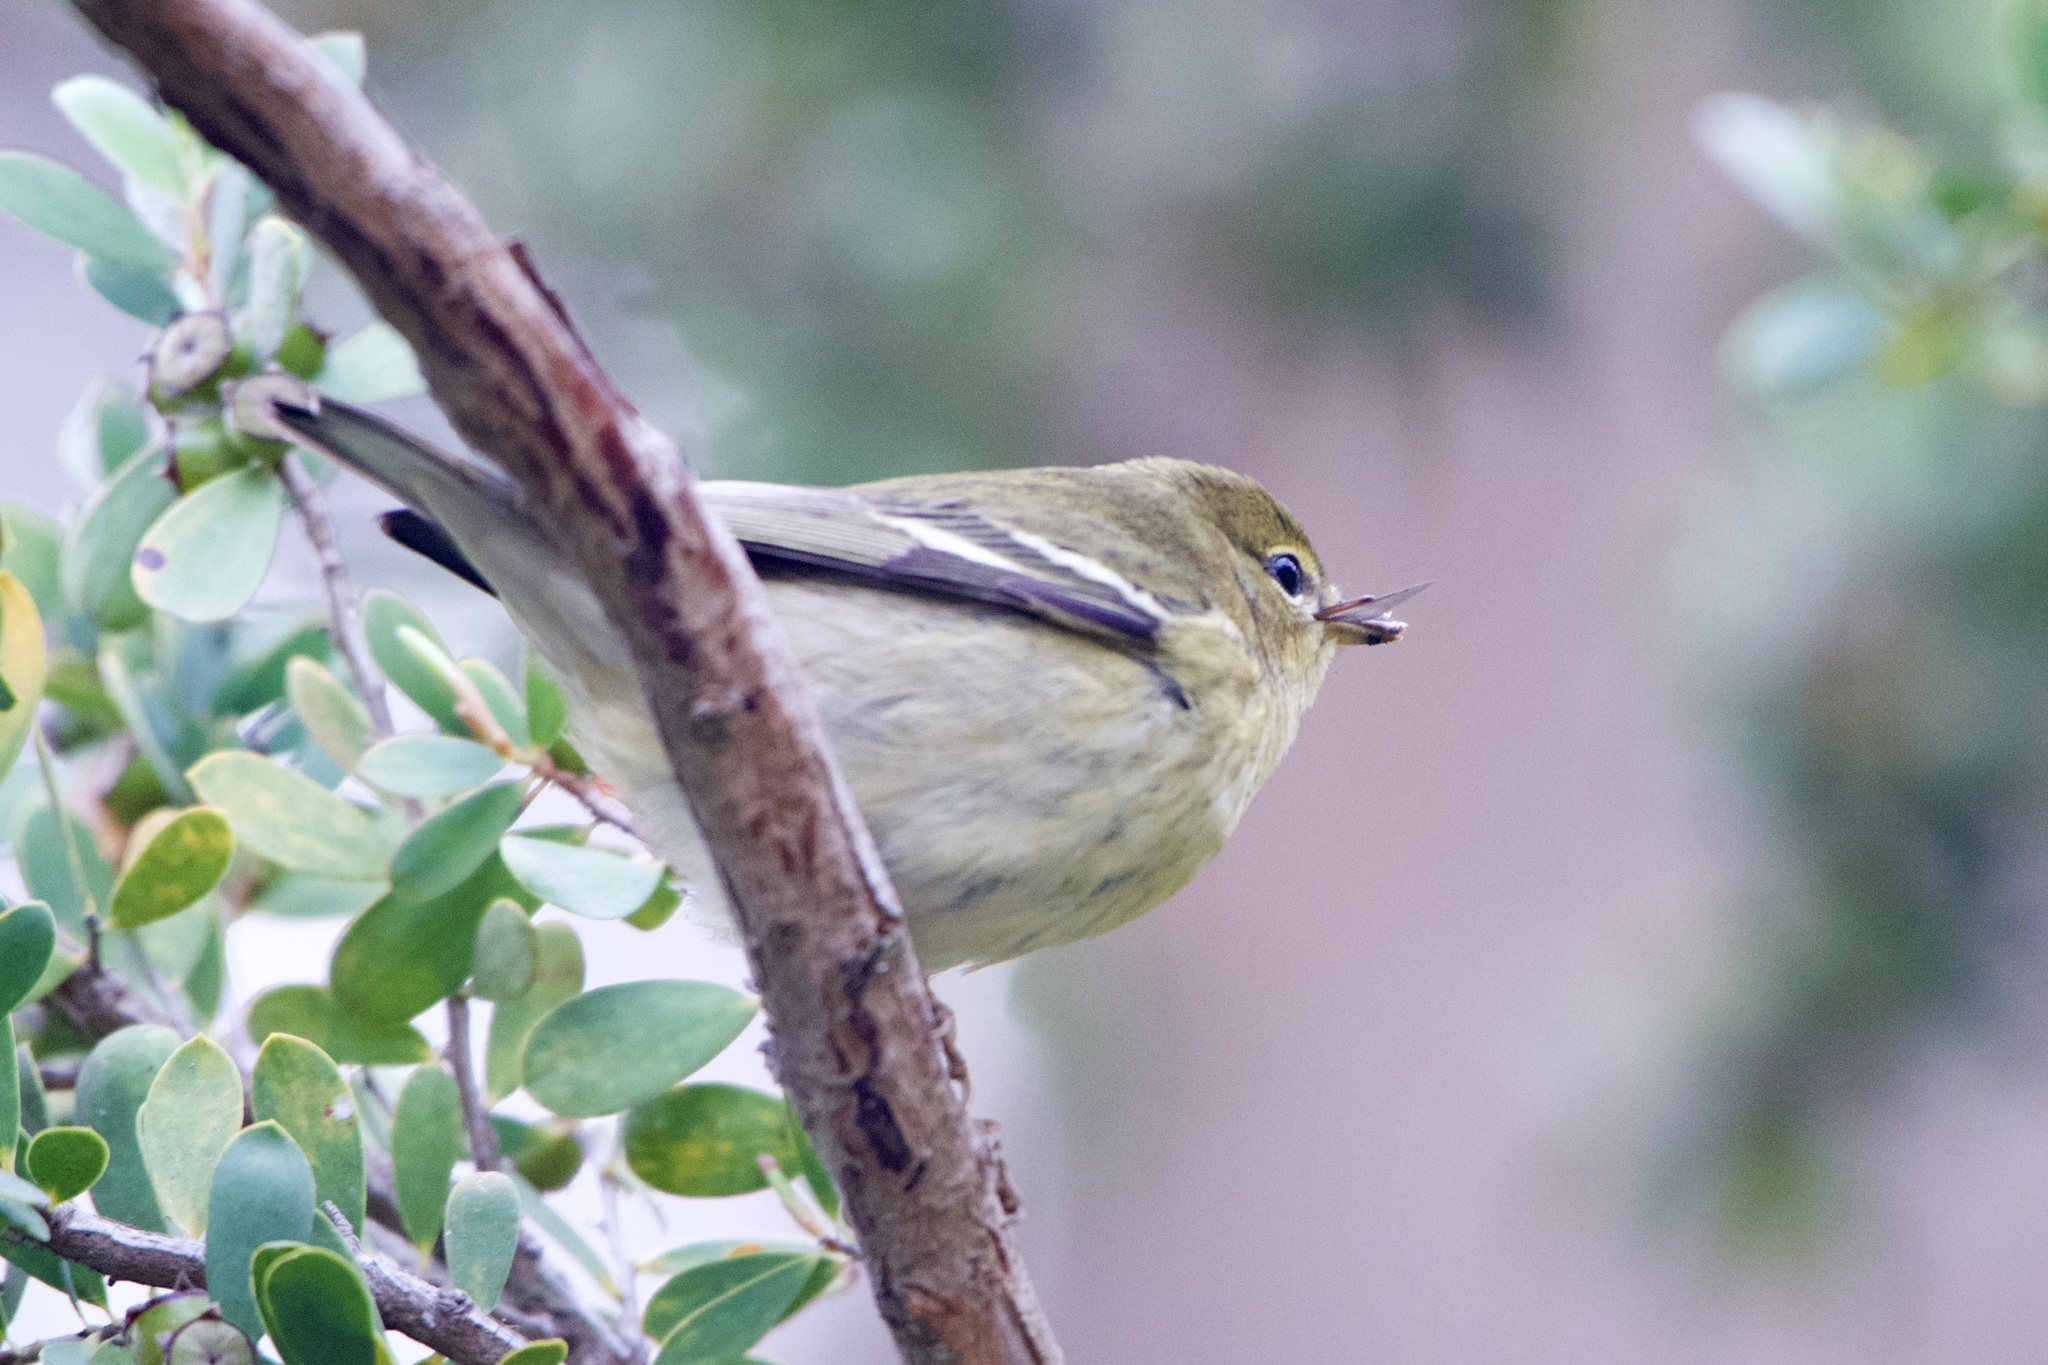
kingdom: Animalia
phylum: Chordata
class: Aves
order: Passeriformes
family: Parulidae
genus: Setophaga
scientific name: Setophaga striata
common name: Blackpoll warbler
